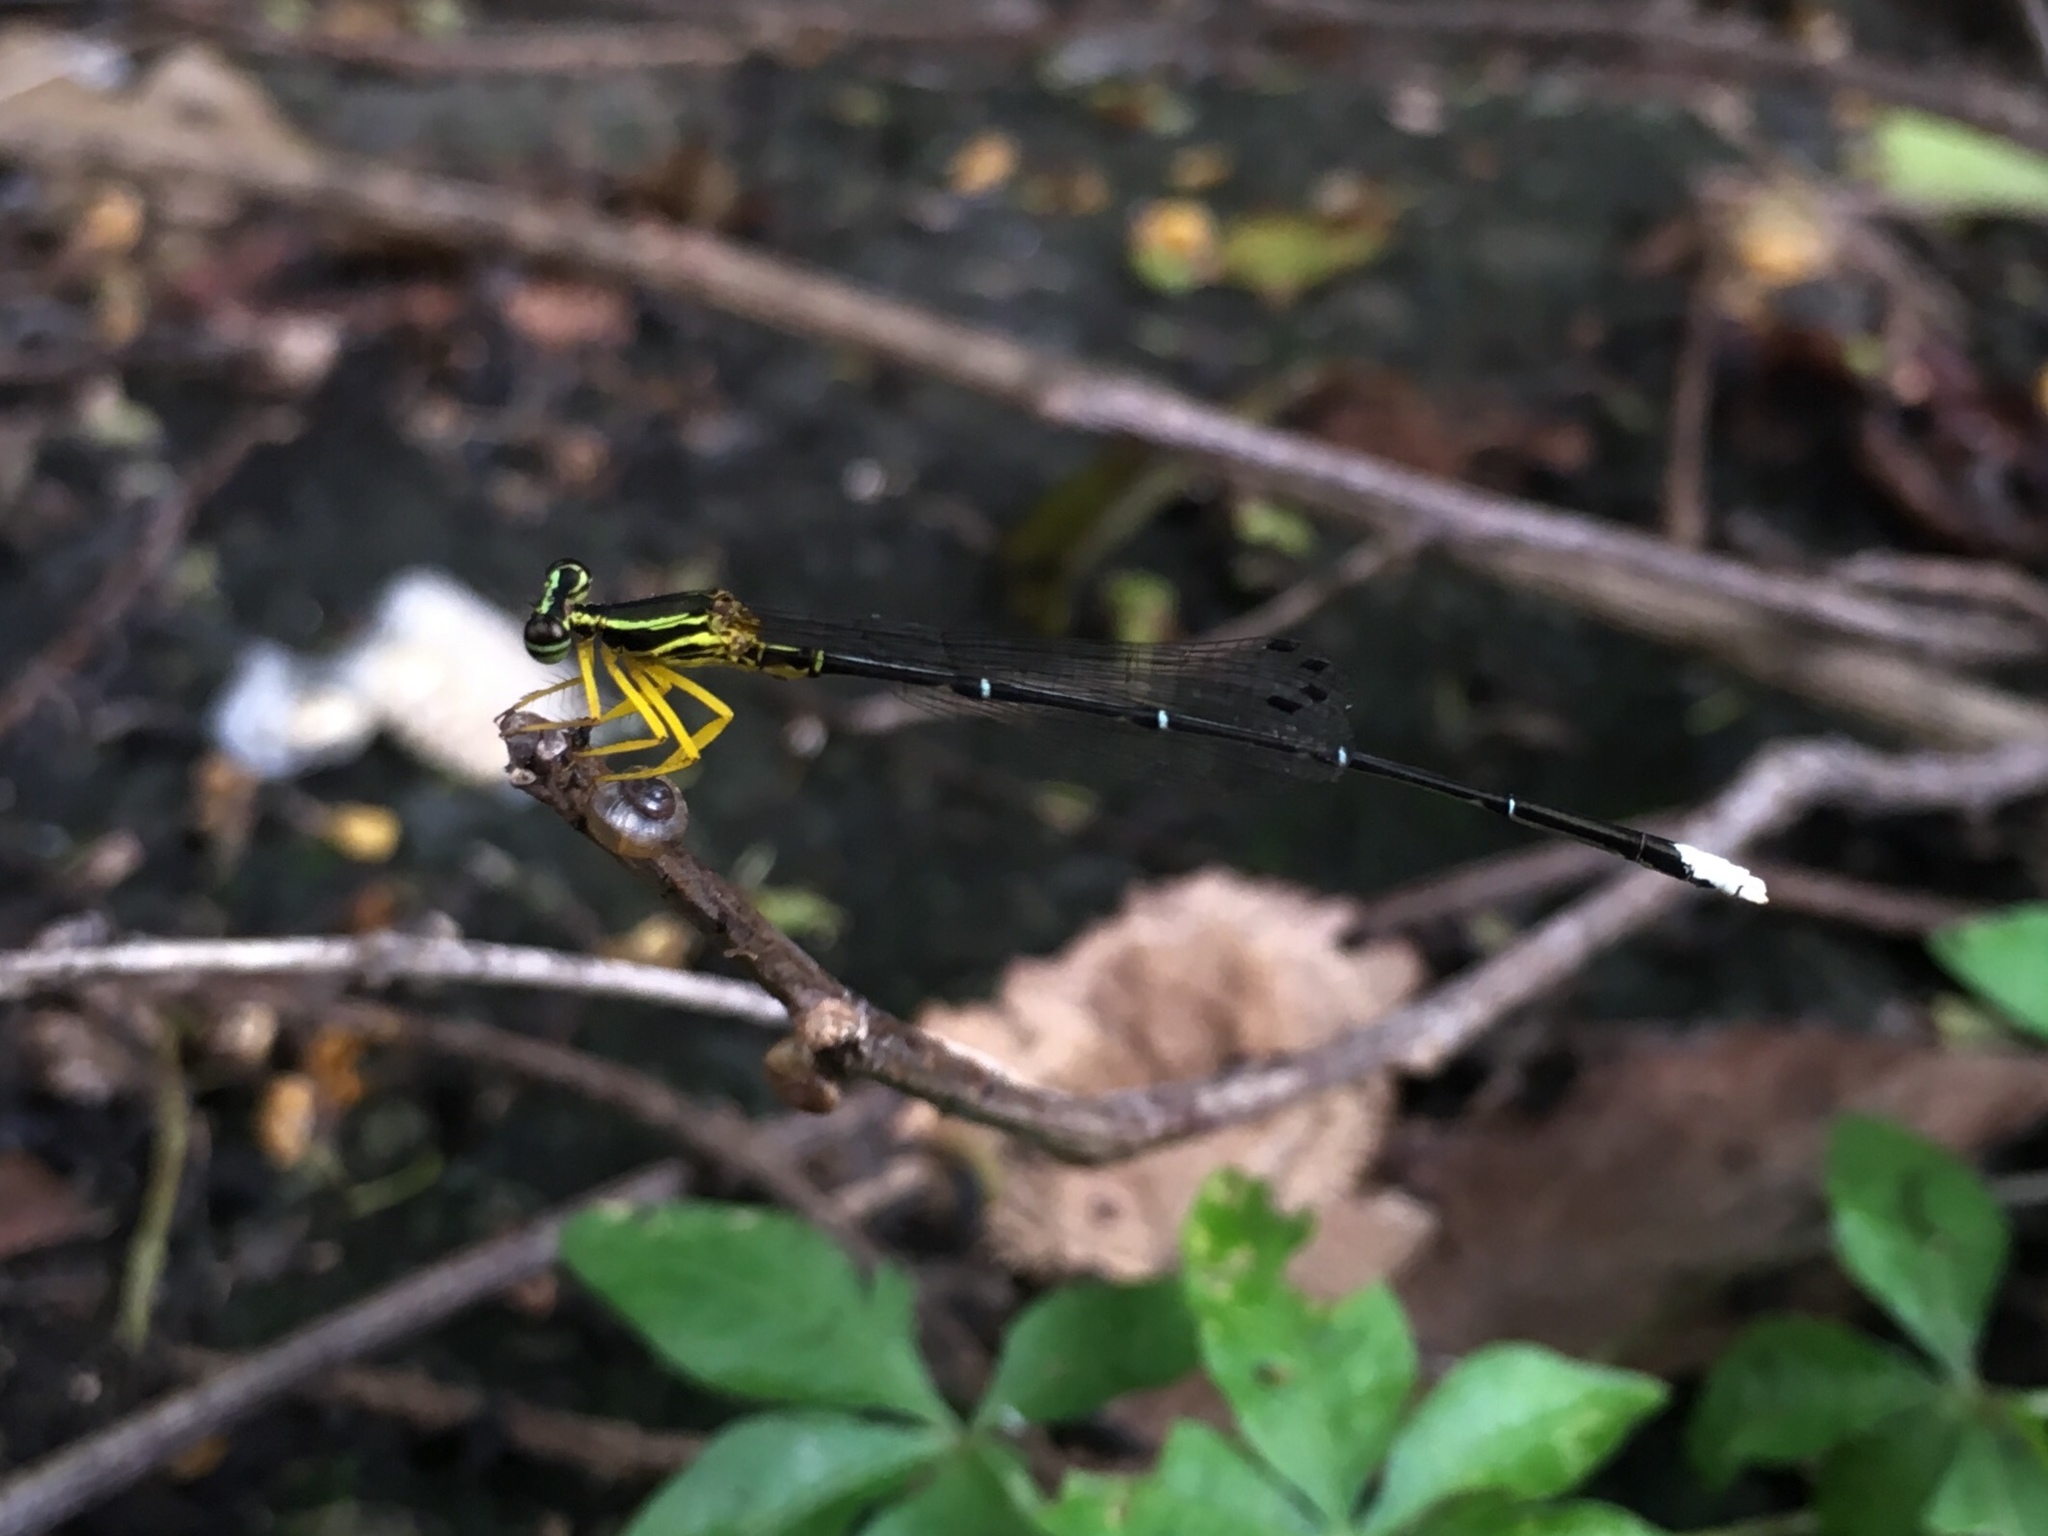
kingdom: Animalia
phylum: Arthropoda
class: Insecta
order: Odonata
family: Platycnemididae
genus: Copera
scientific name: Copera marginipes
